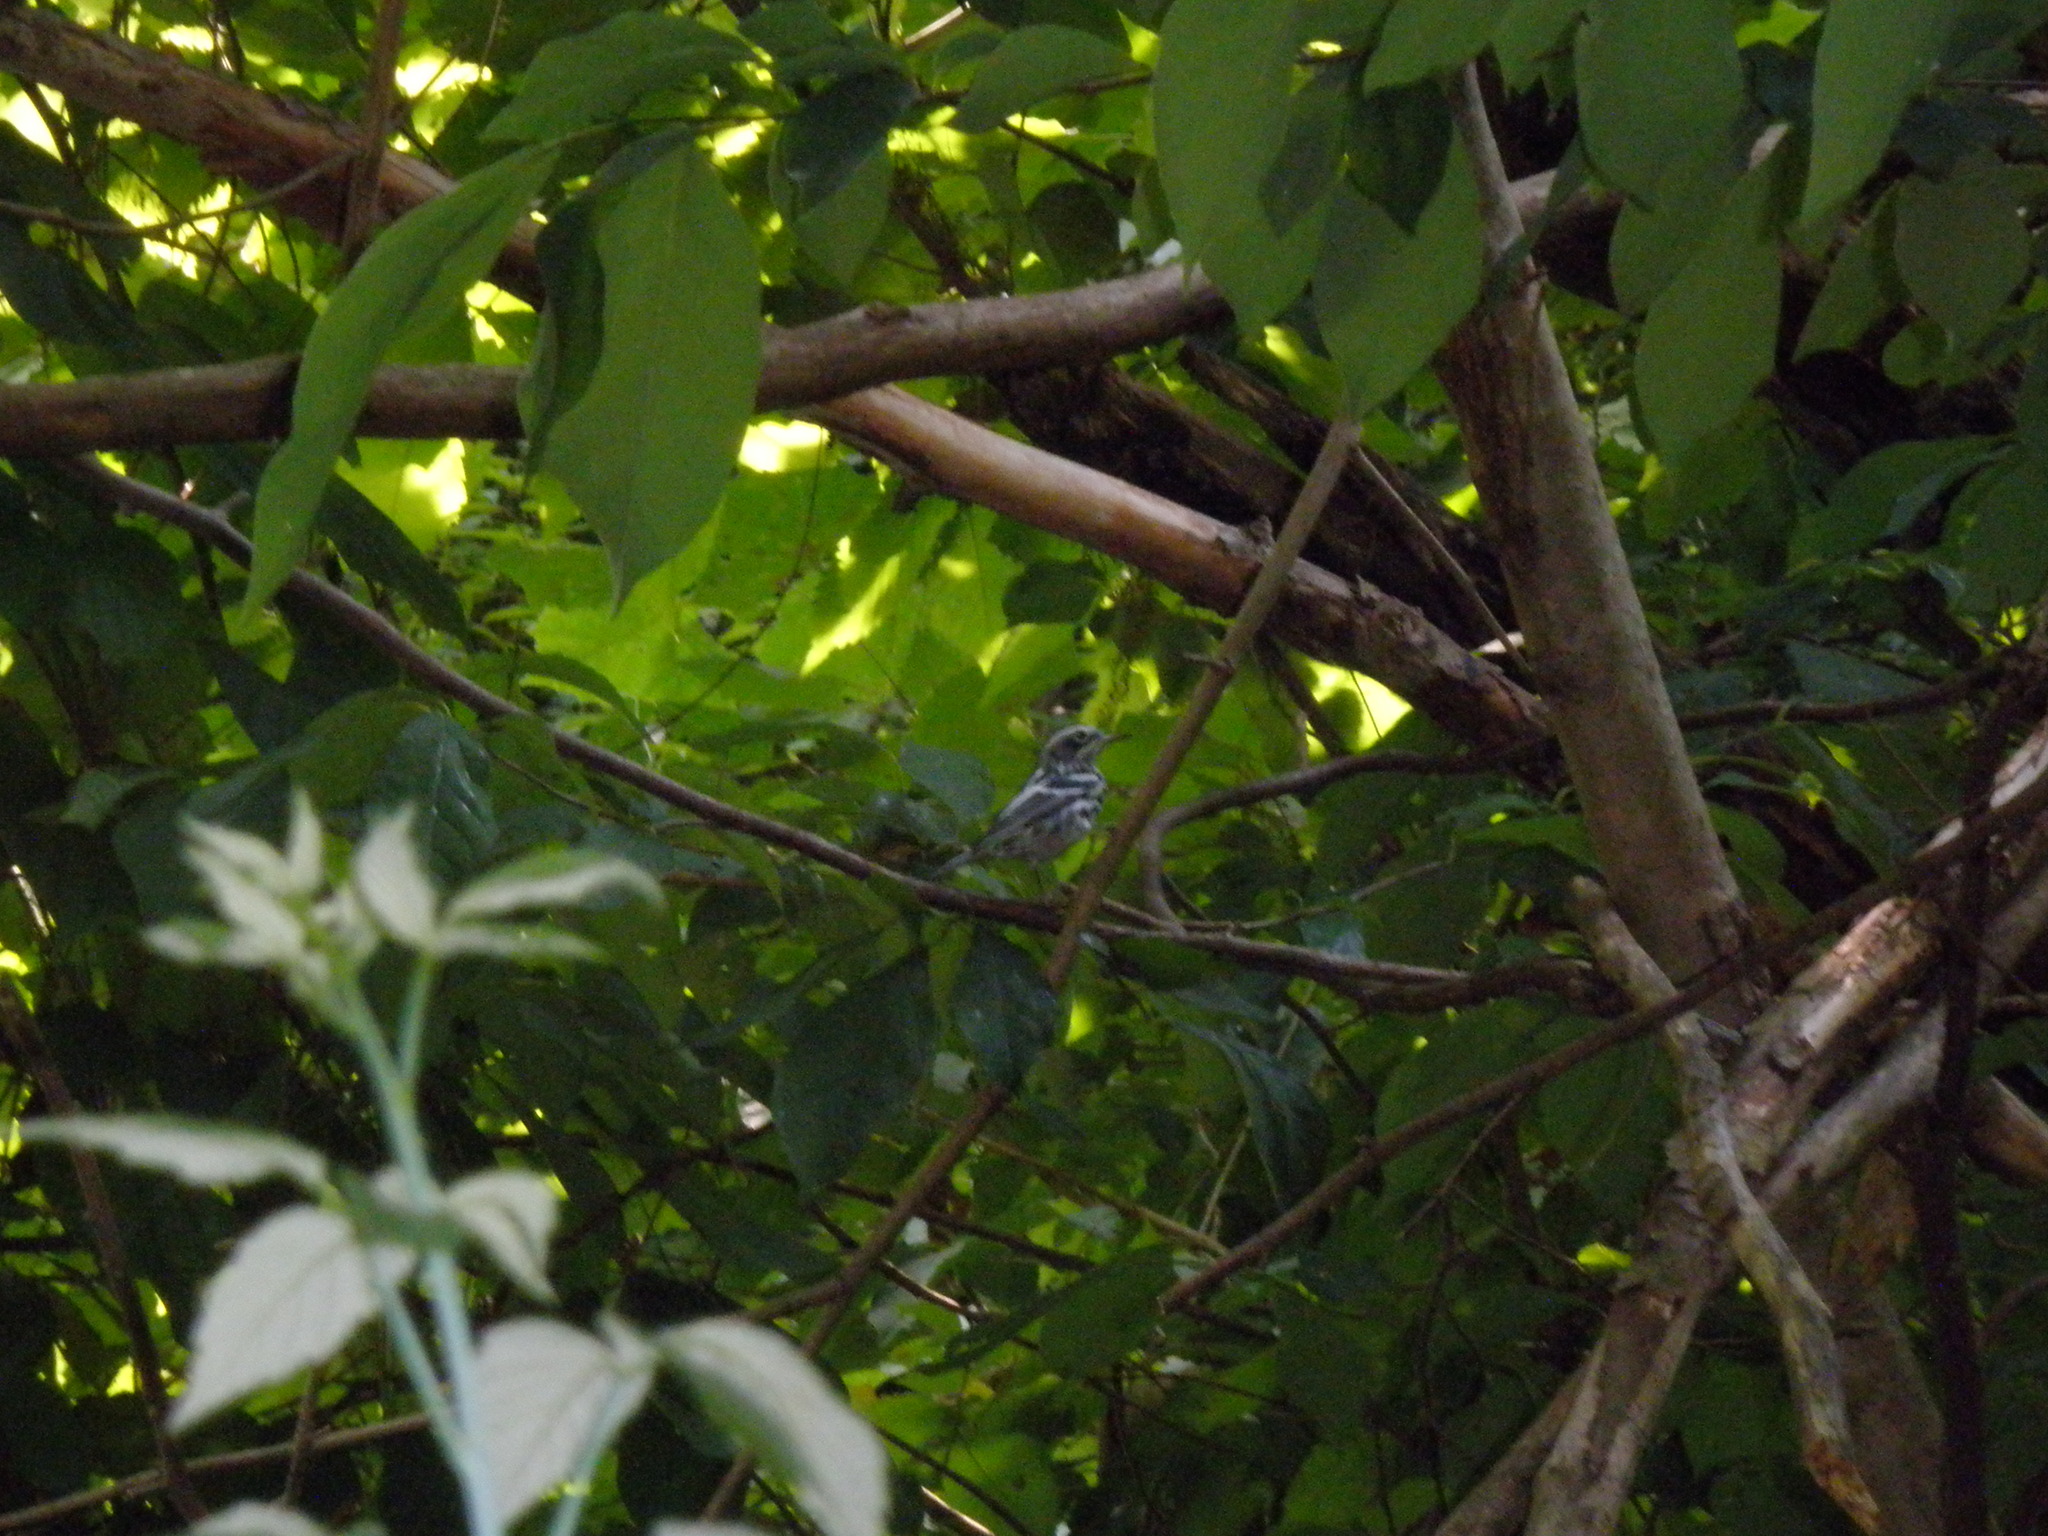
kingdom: Animalia
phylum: Chordata
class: Aves
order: Passeriformes
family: Parulidae
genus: Mniotilta
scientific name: Mniotilta varia
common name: Black-and-white warbler
